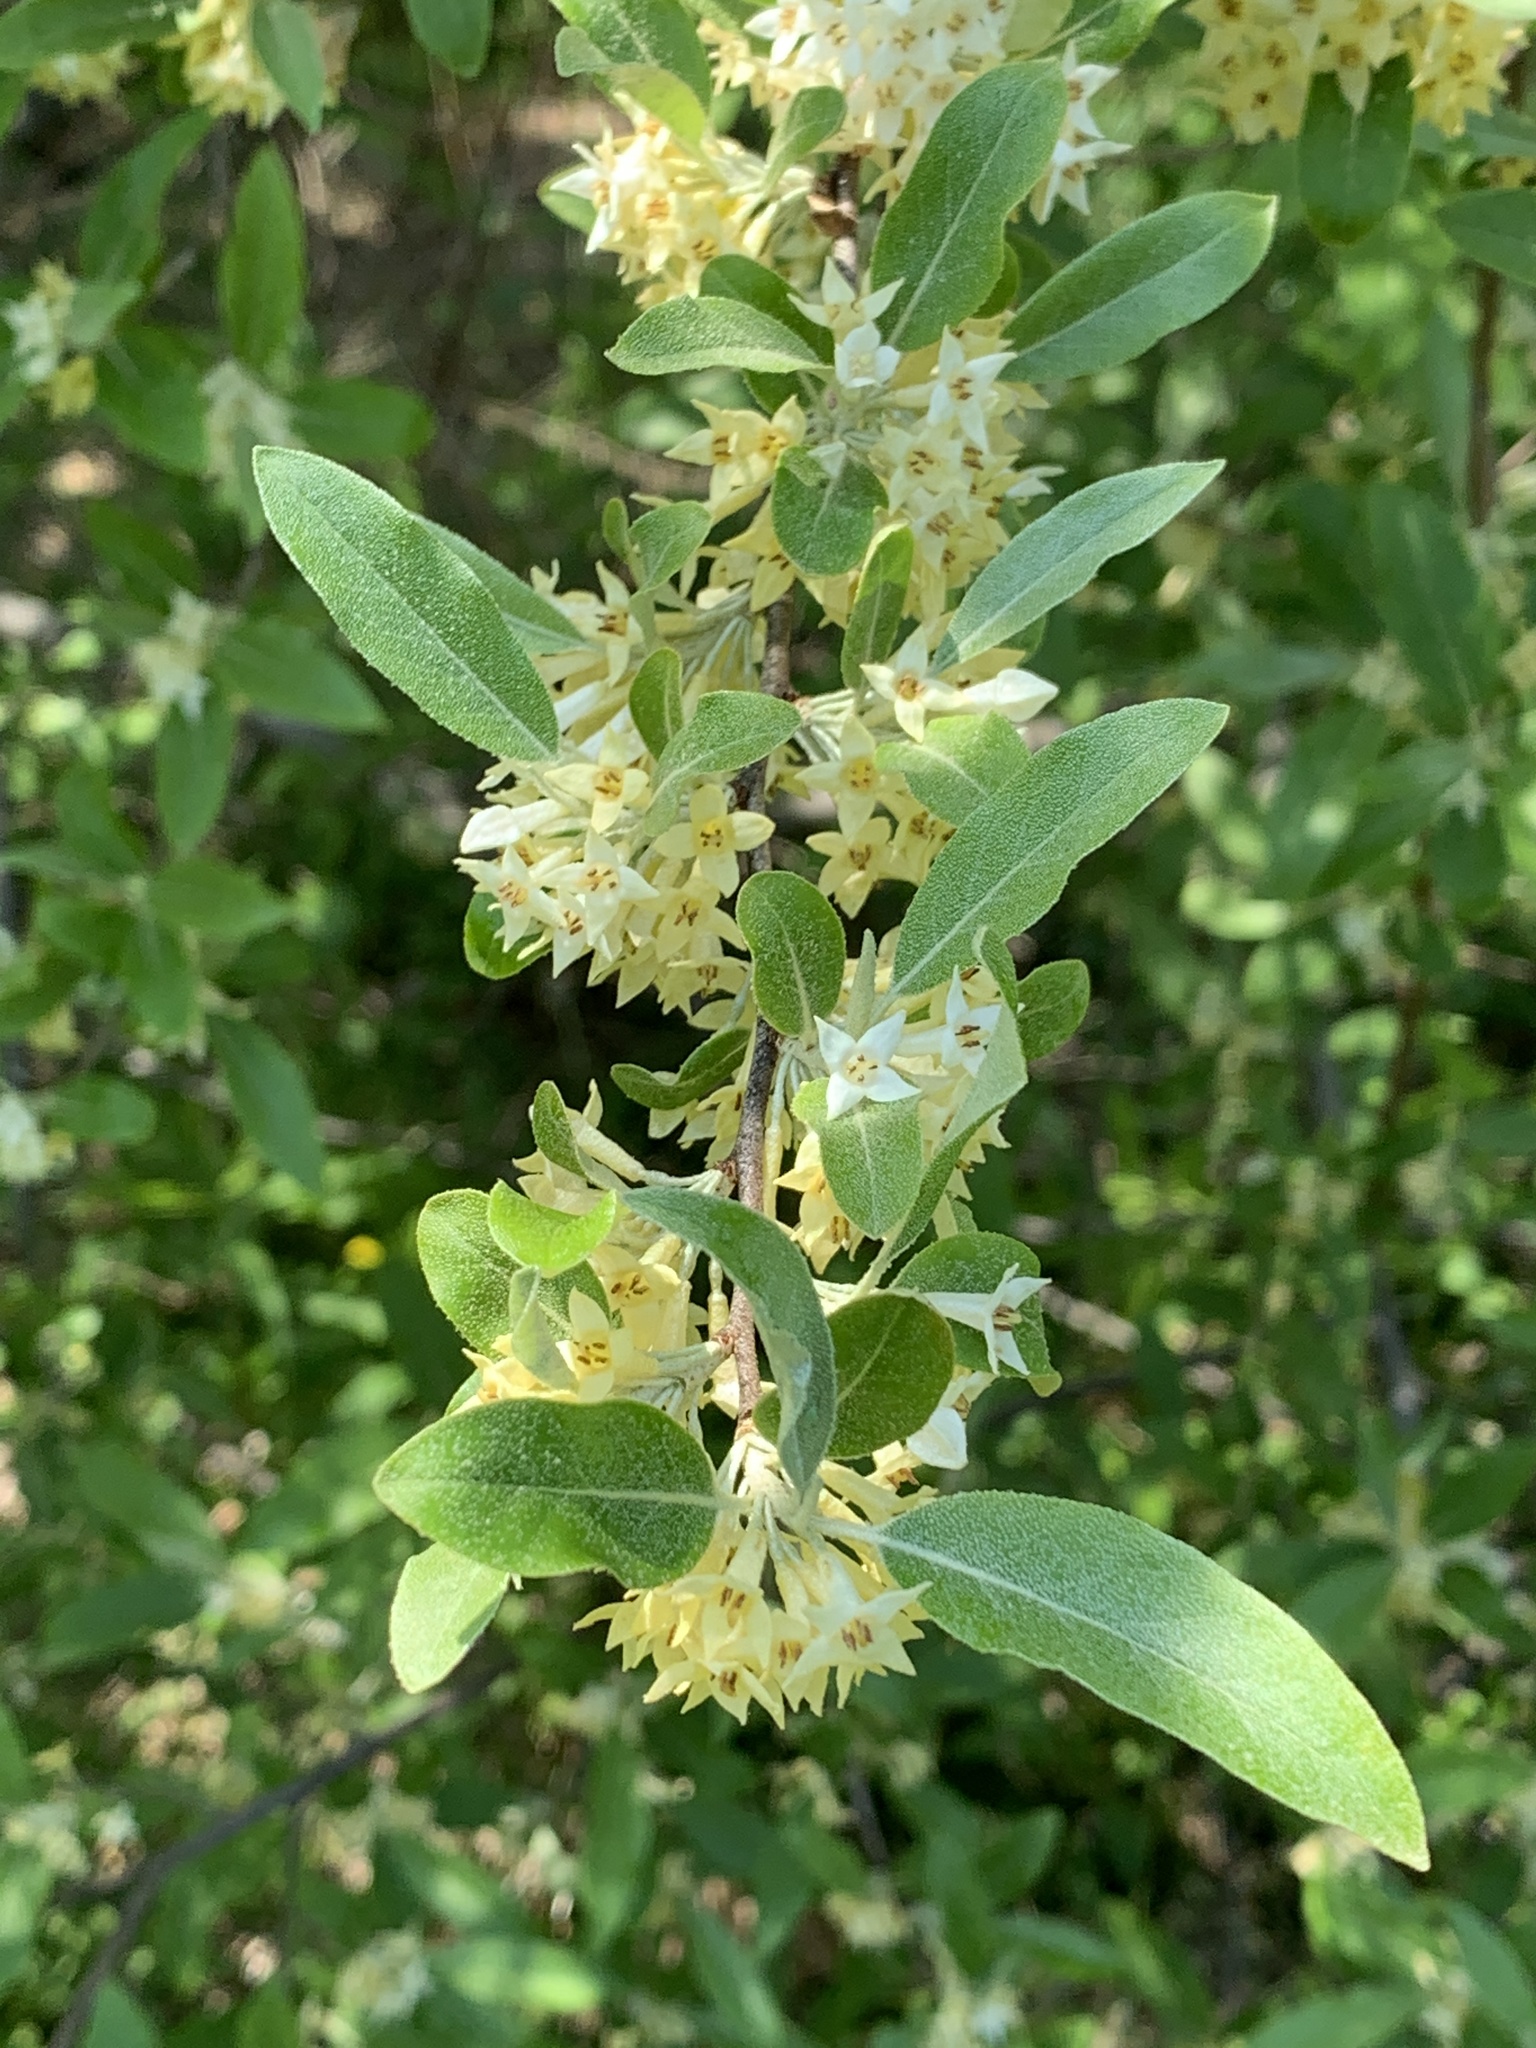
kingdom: Plantae
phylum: Tracheophyta
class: Magnoliopsida
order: Rosales
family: Elaeagnaceae
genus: Elaeagnus
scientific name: Elaeagnus umbellata
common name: Autumn olive
